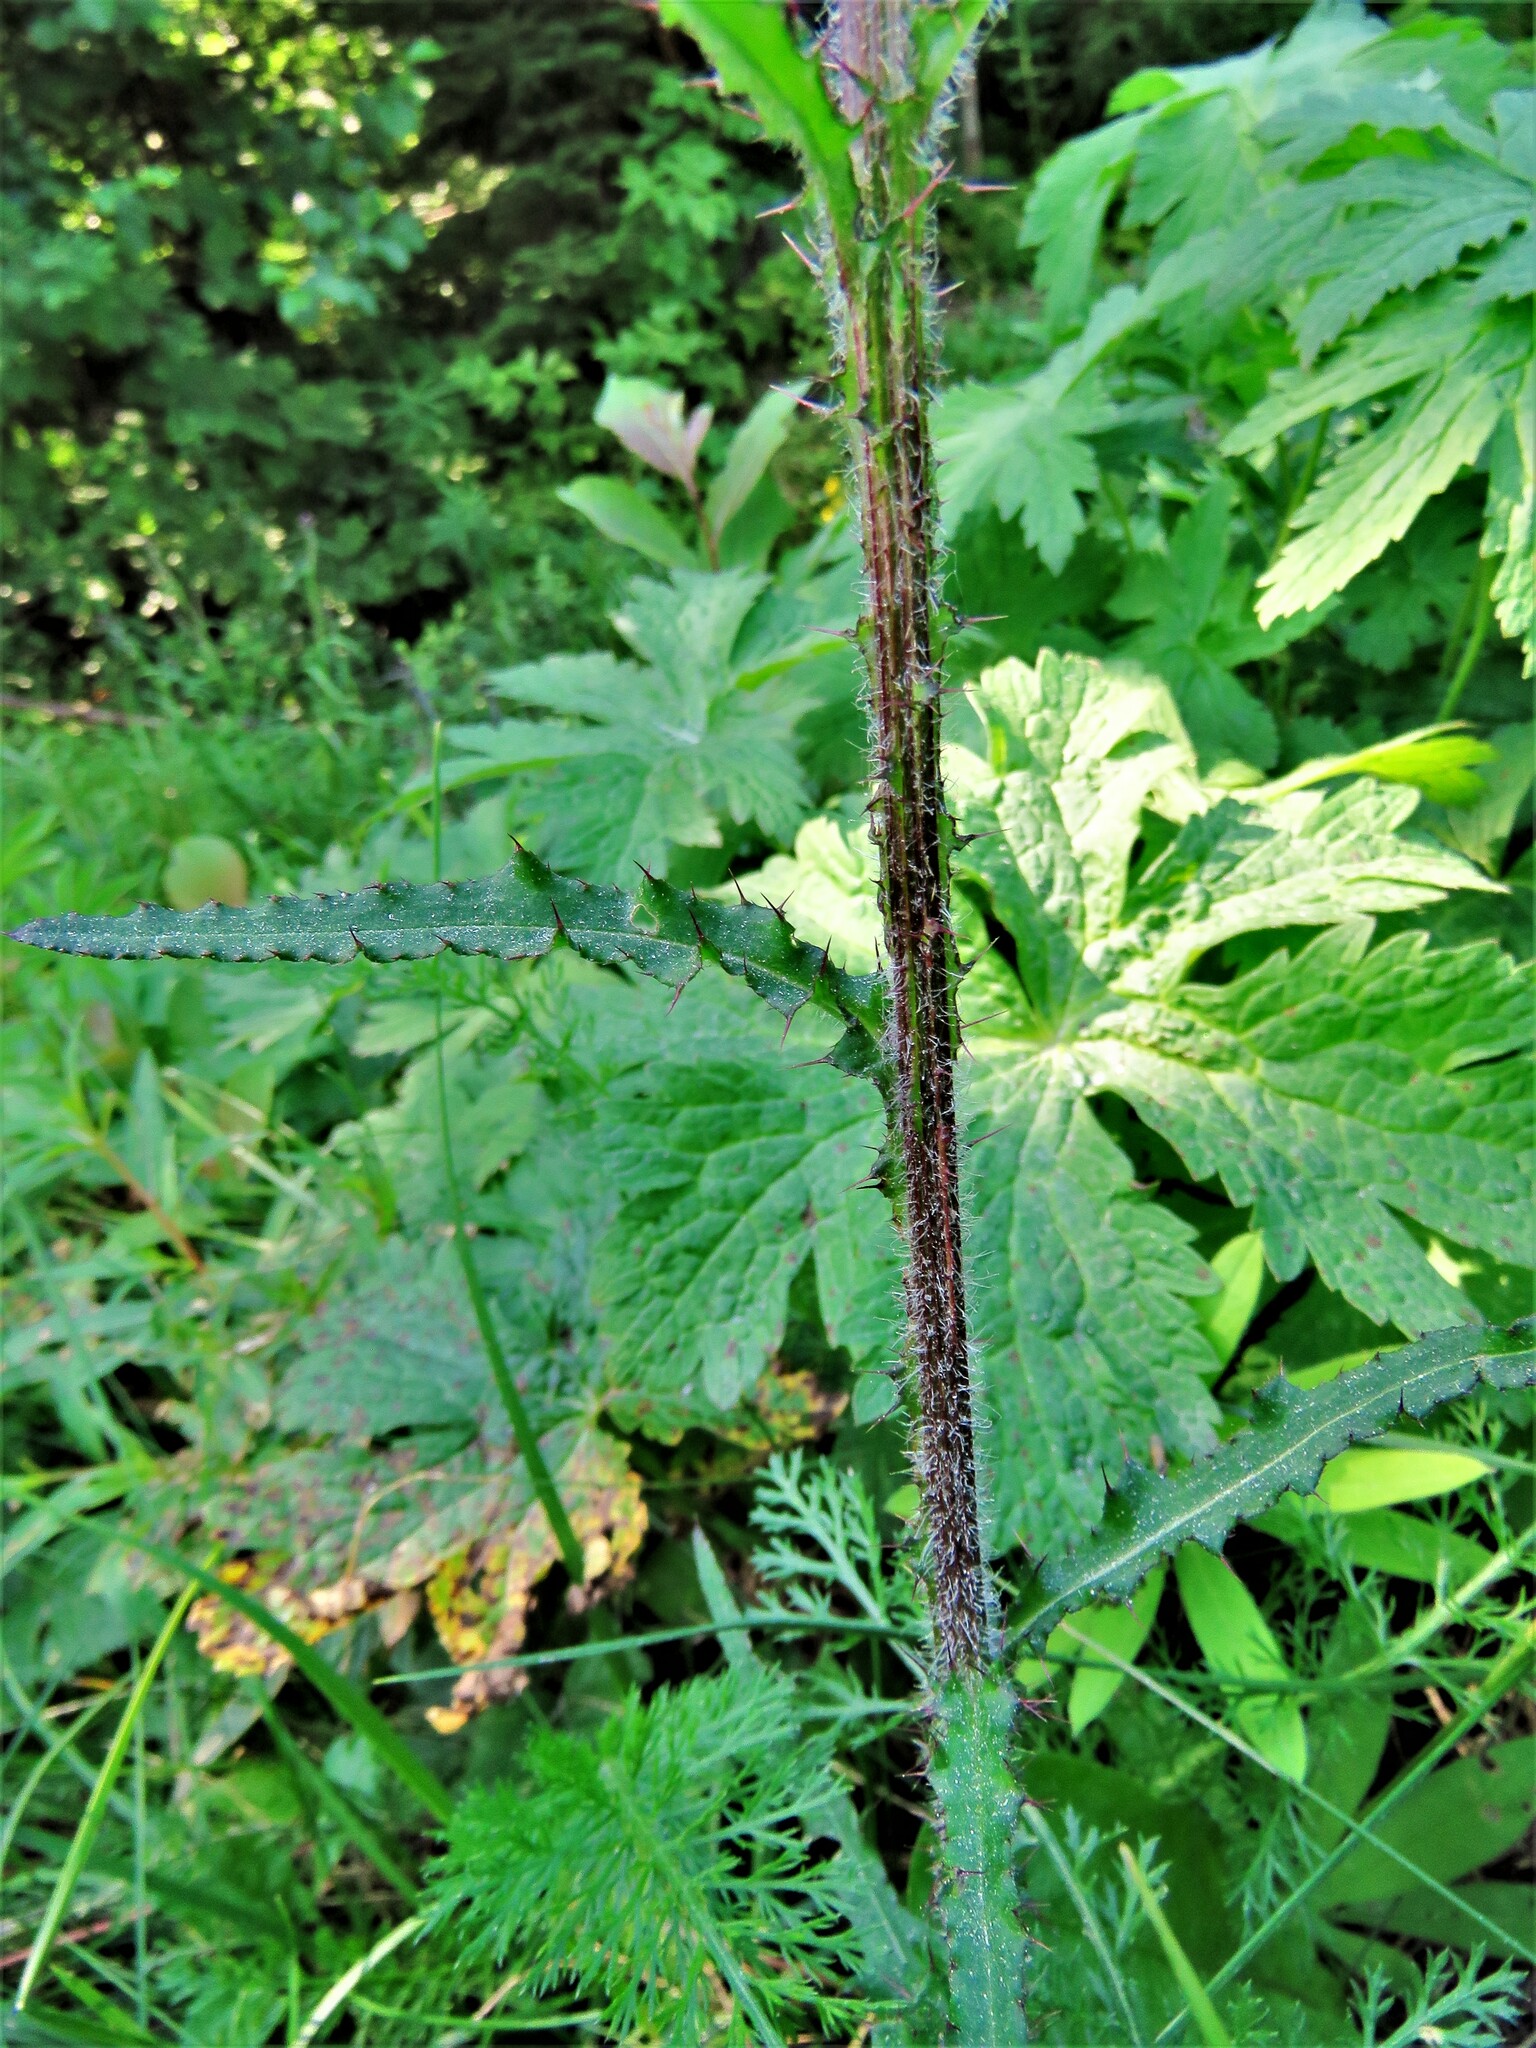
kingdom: Plantae
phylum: Tracheophyta
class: Magnoliopsida
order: Asterales
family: Asteraceae
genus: Cirsium
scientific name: Cirsium palustre
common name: Marsh thistle
